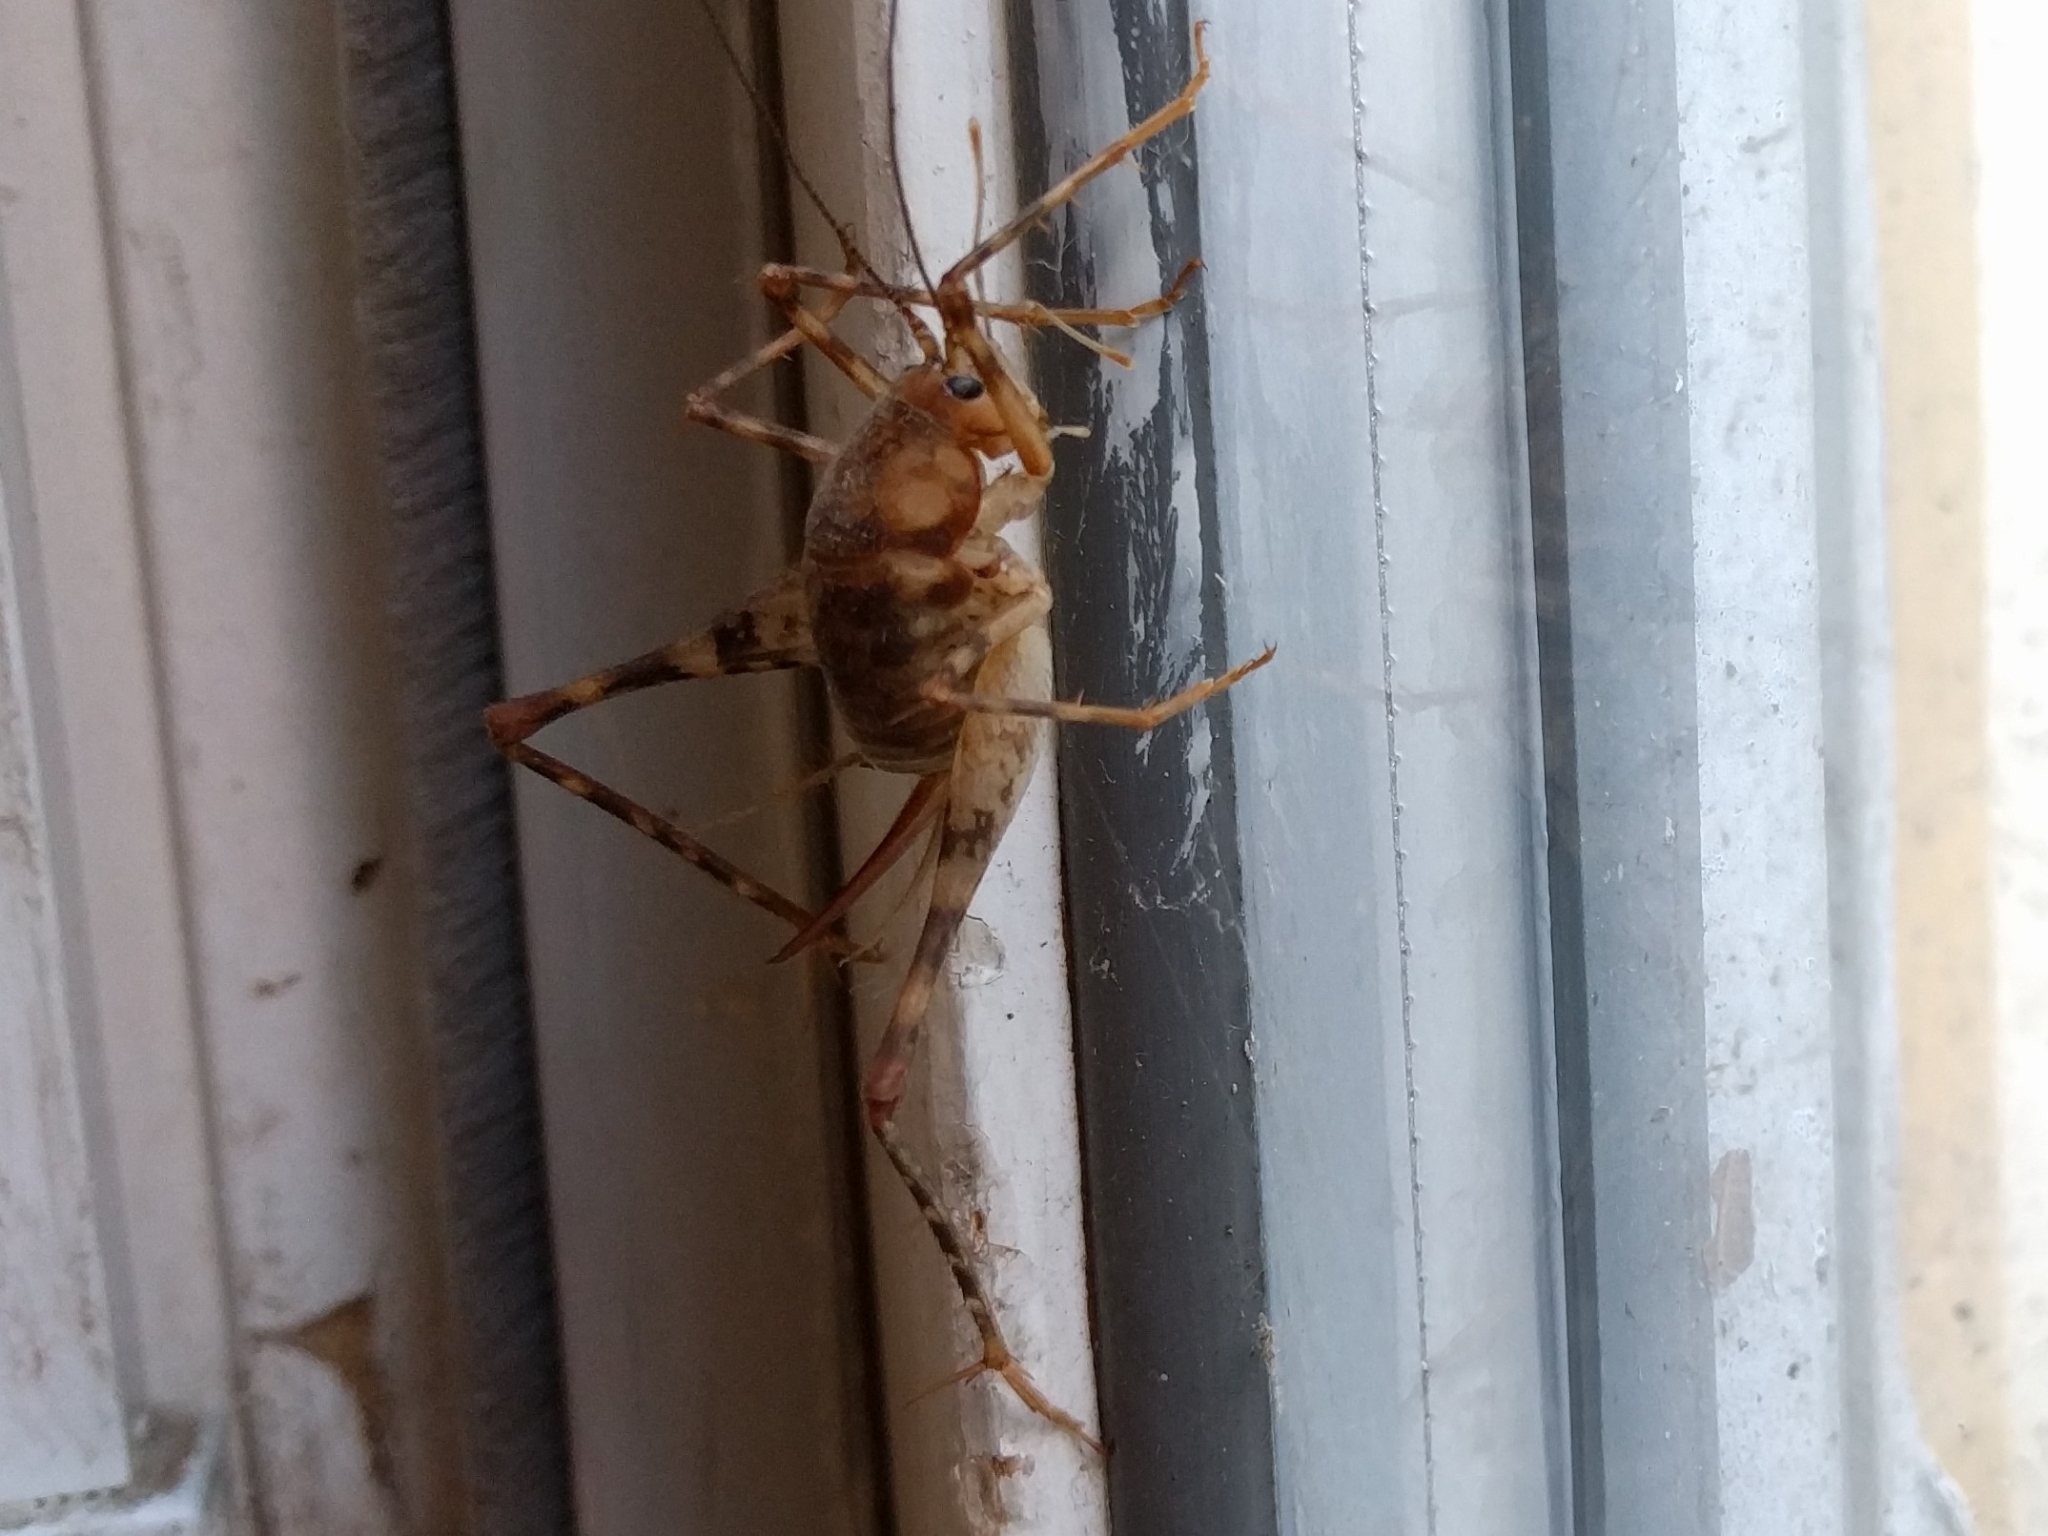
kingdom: Animalia
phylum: Arthropoda
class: Insecta
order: Orthoptera
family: Rhaphidophoridae
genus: Tachycines
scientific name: Tachycines asynamorus
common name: Greenhouse camel cricket
